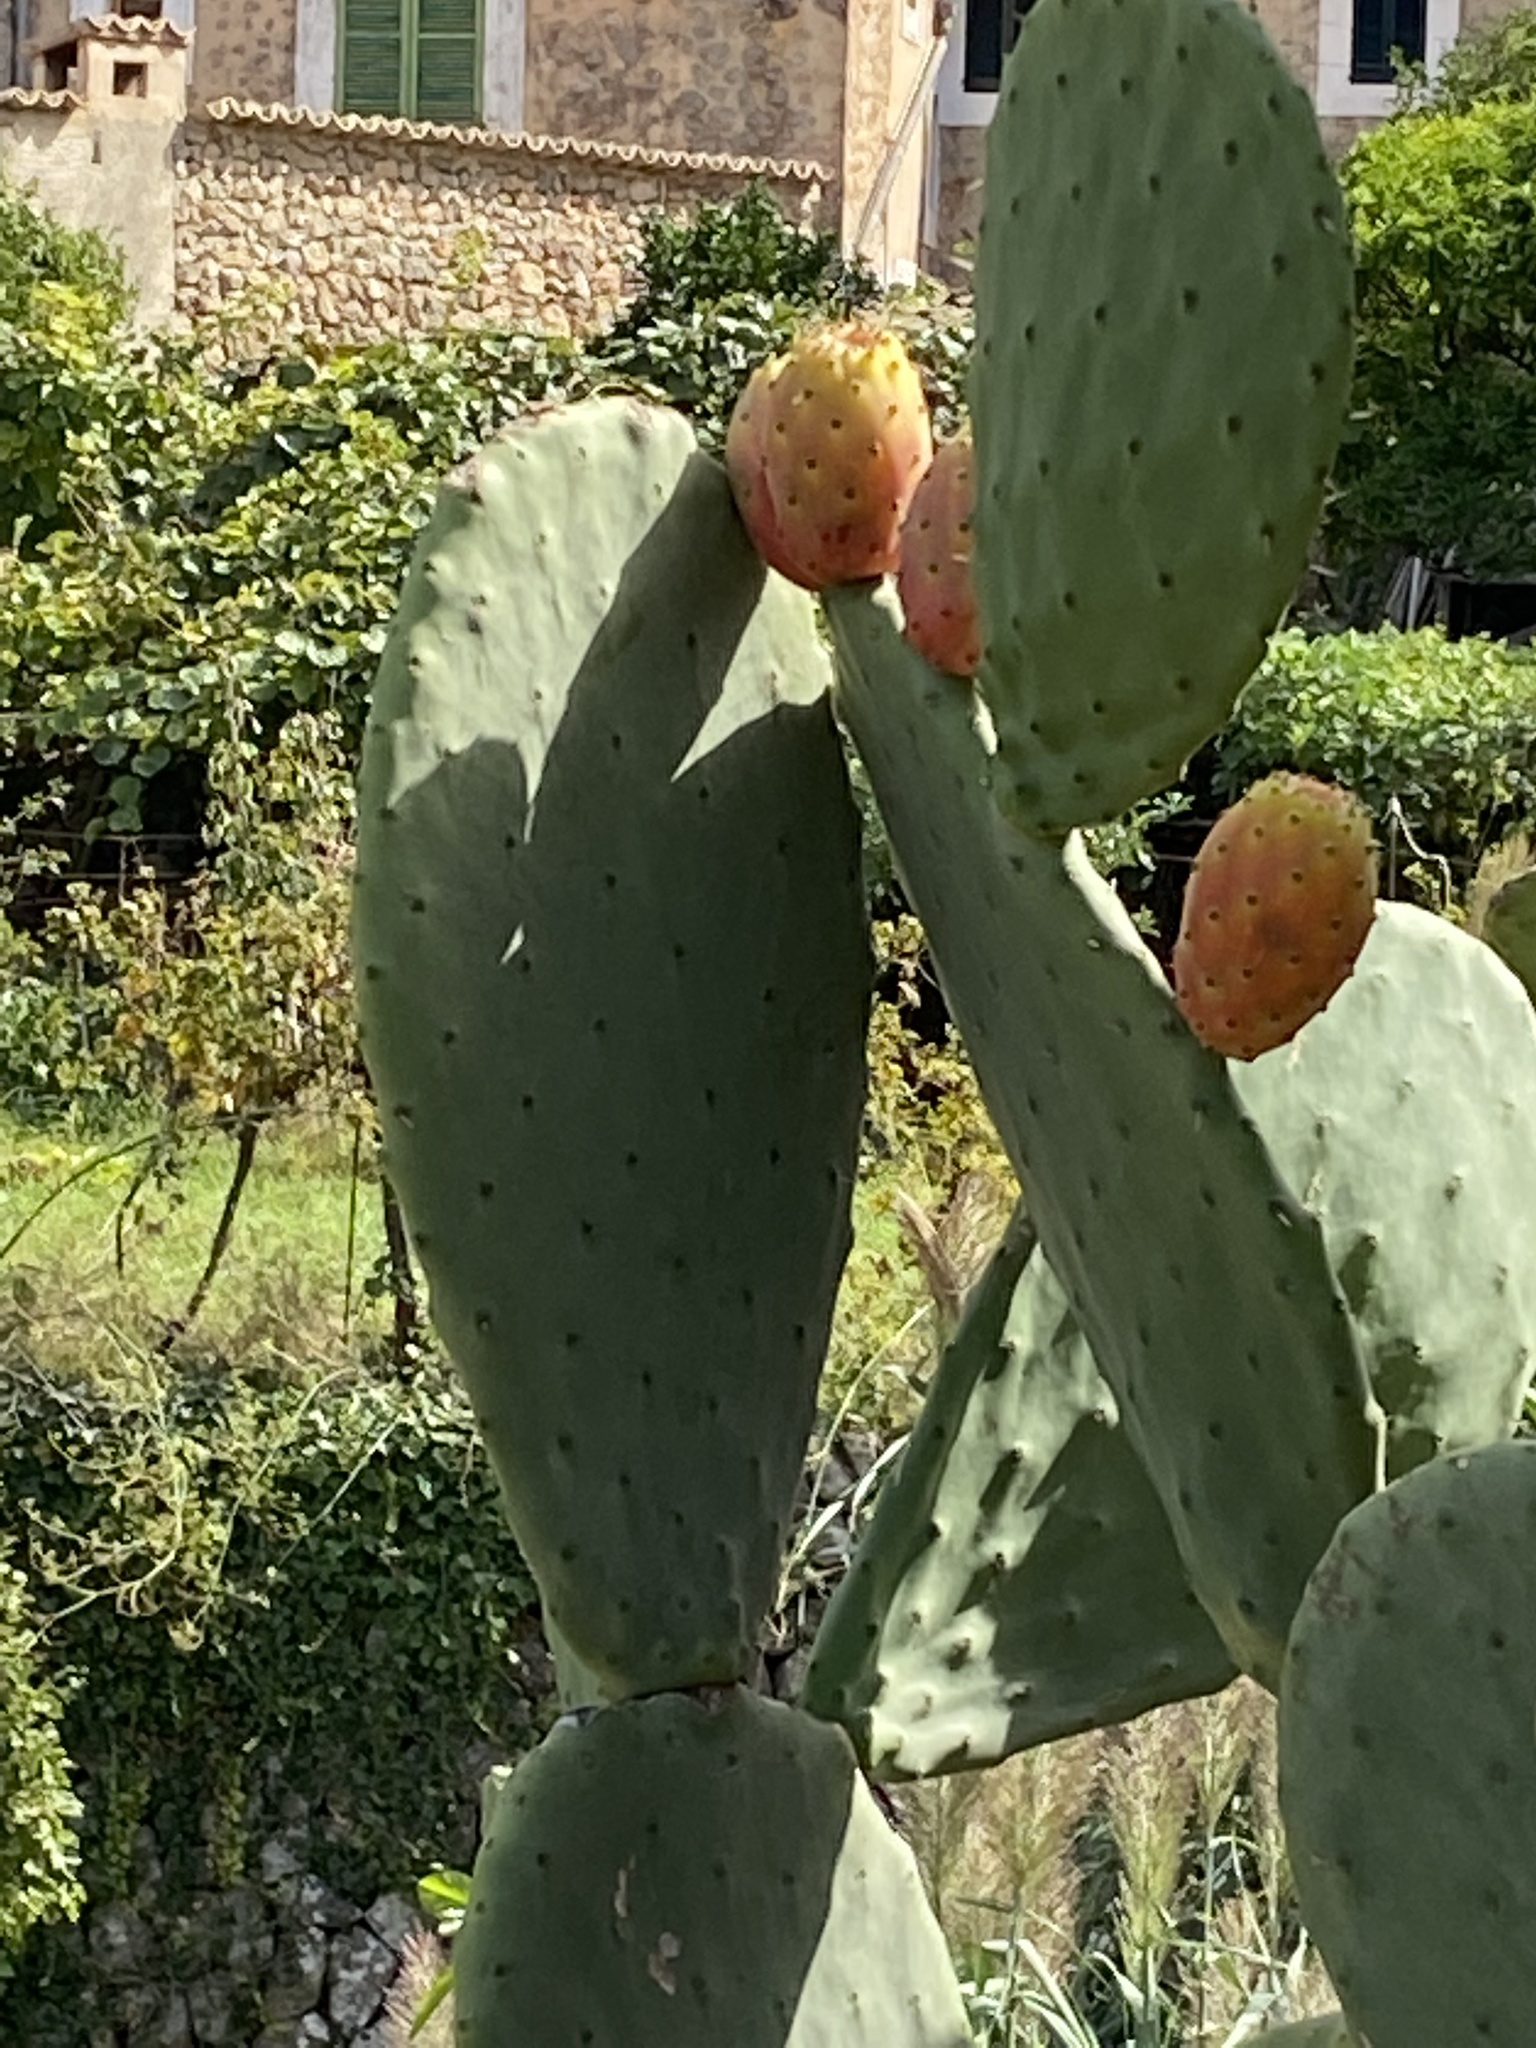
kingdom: Plantae
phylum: Tracheophyta
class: Magnoliopsida
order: Caryophyllales
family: Cactaceae
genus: Opuntia
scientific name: Opuntia ficus-indica
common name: Barbary fig
